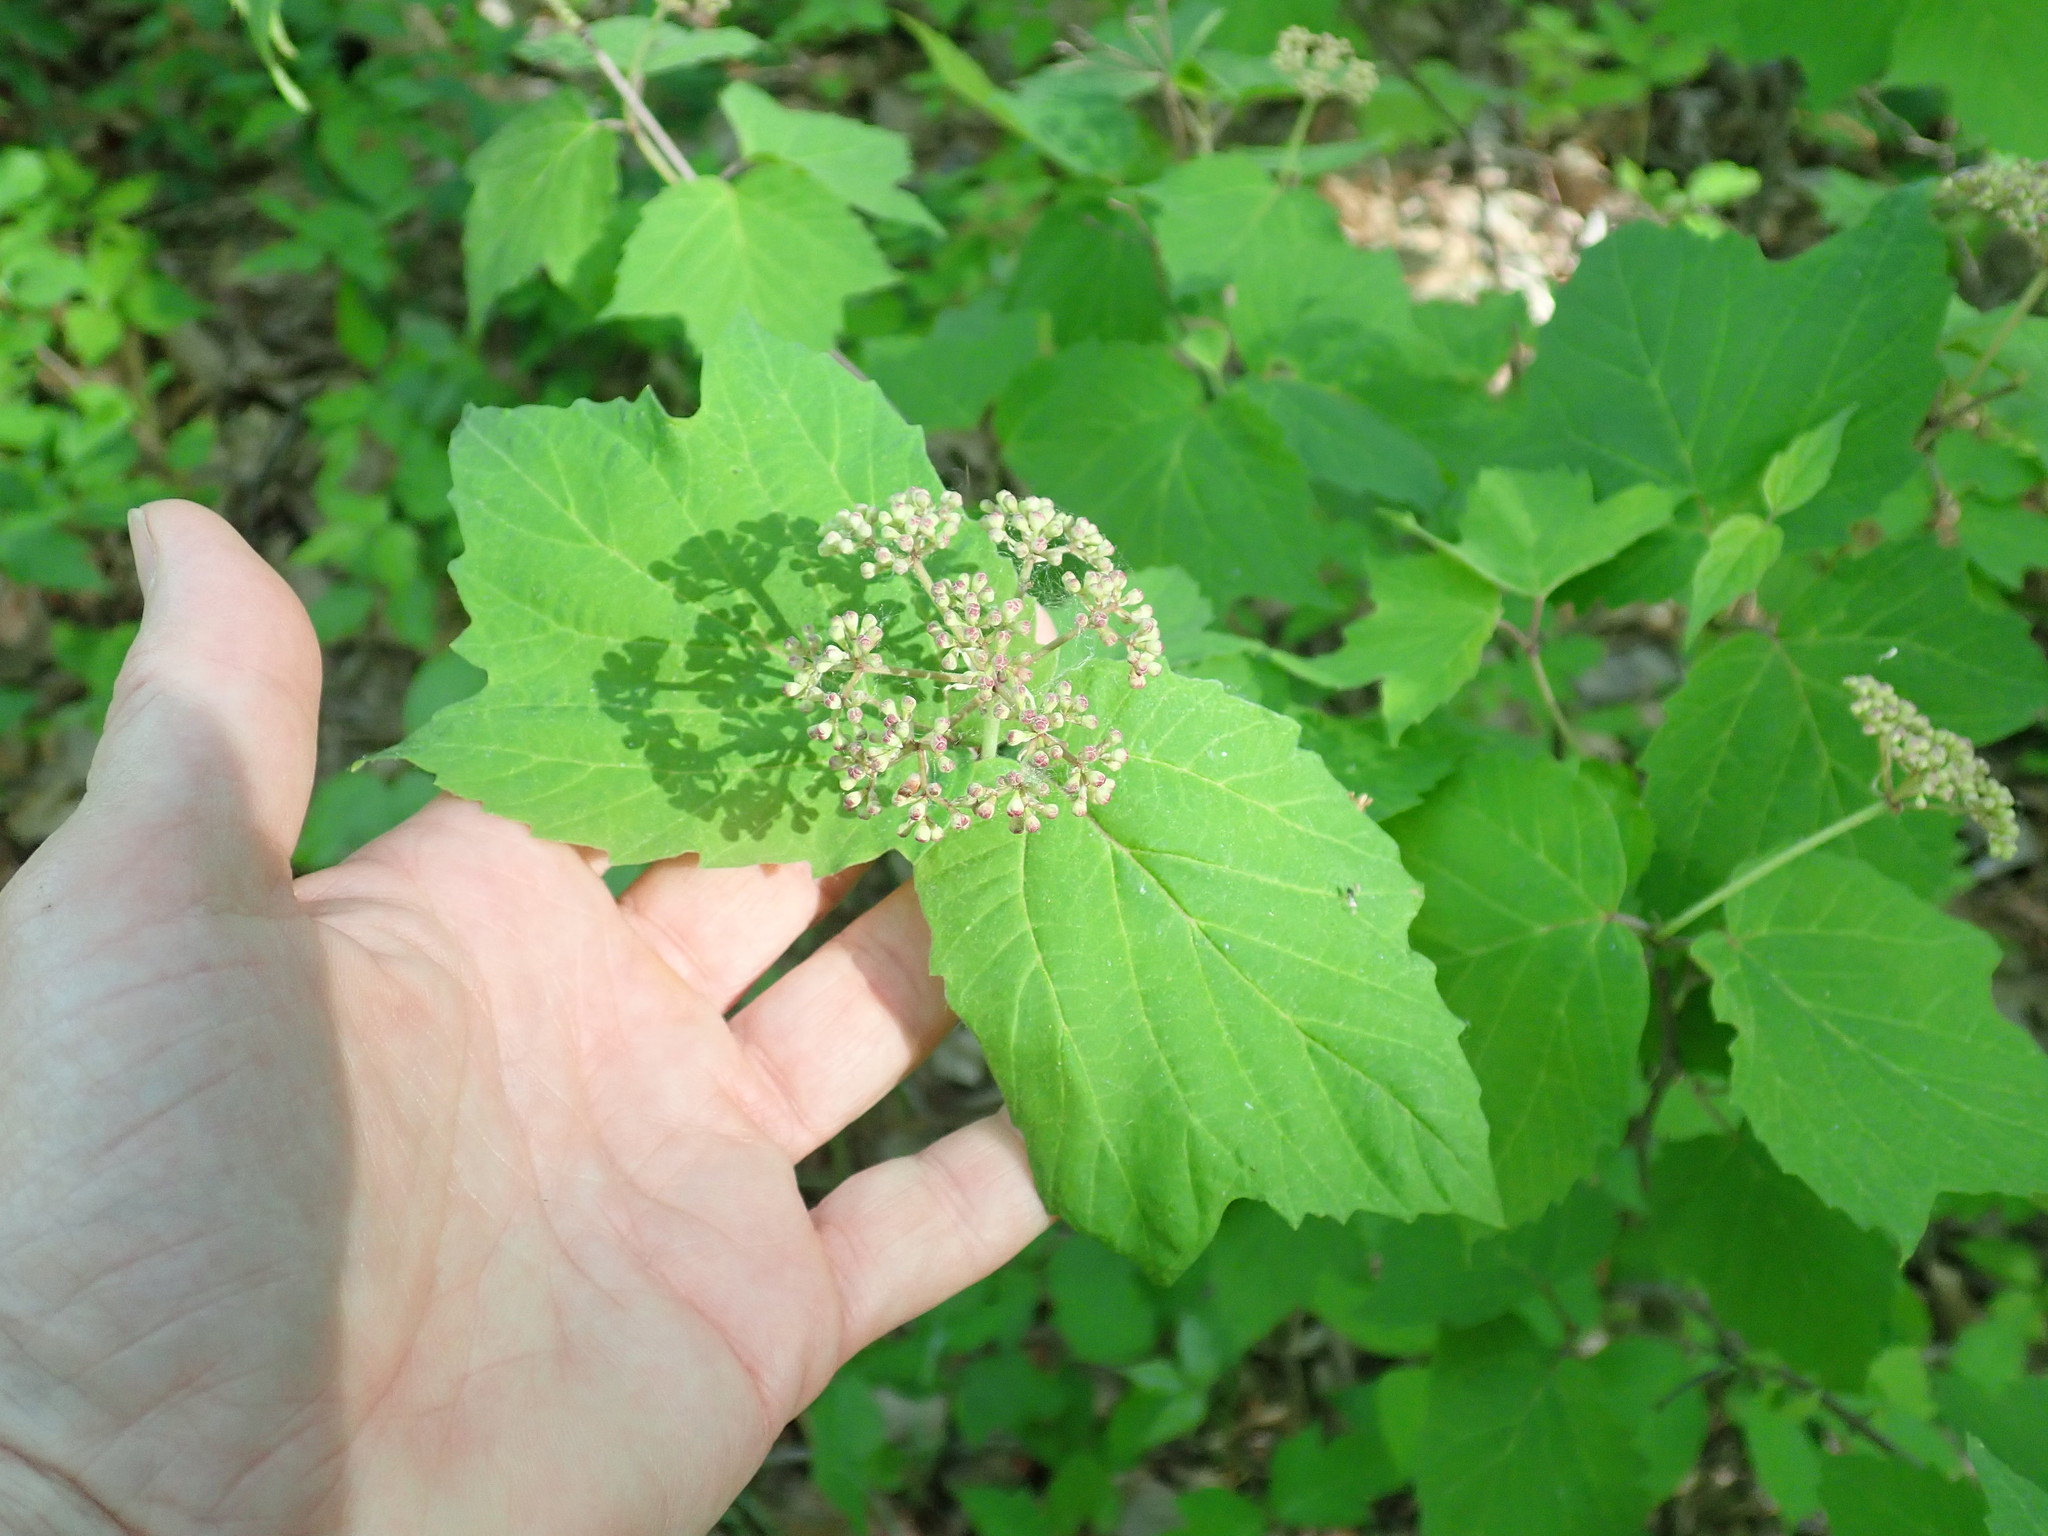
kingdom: Plantae
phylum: Tracheophyta
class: Magnoliopsida
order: Dipsacales
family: Viburnaceae
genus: Viburnum
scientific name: Viburnum acerifolium
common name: Dockmackie
